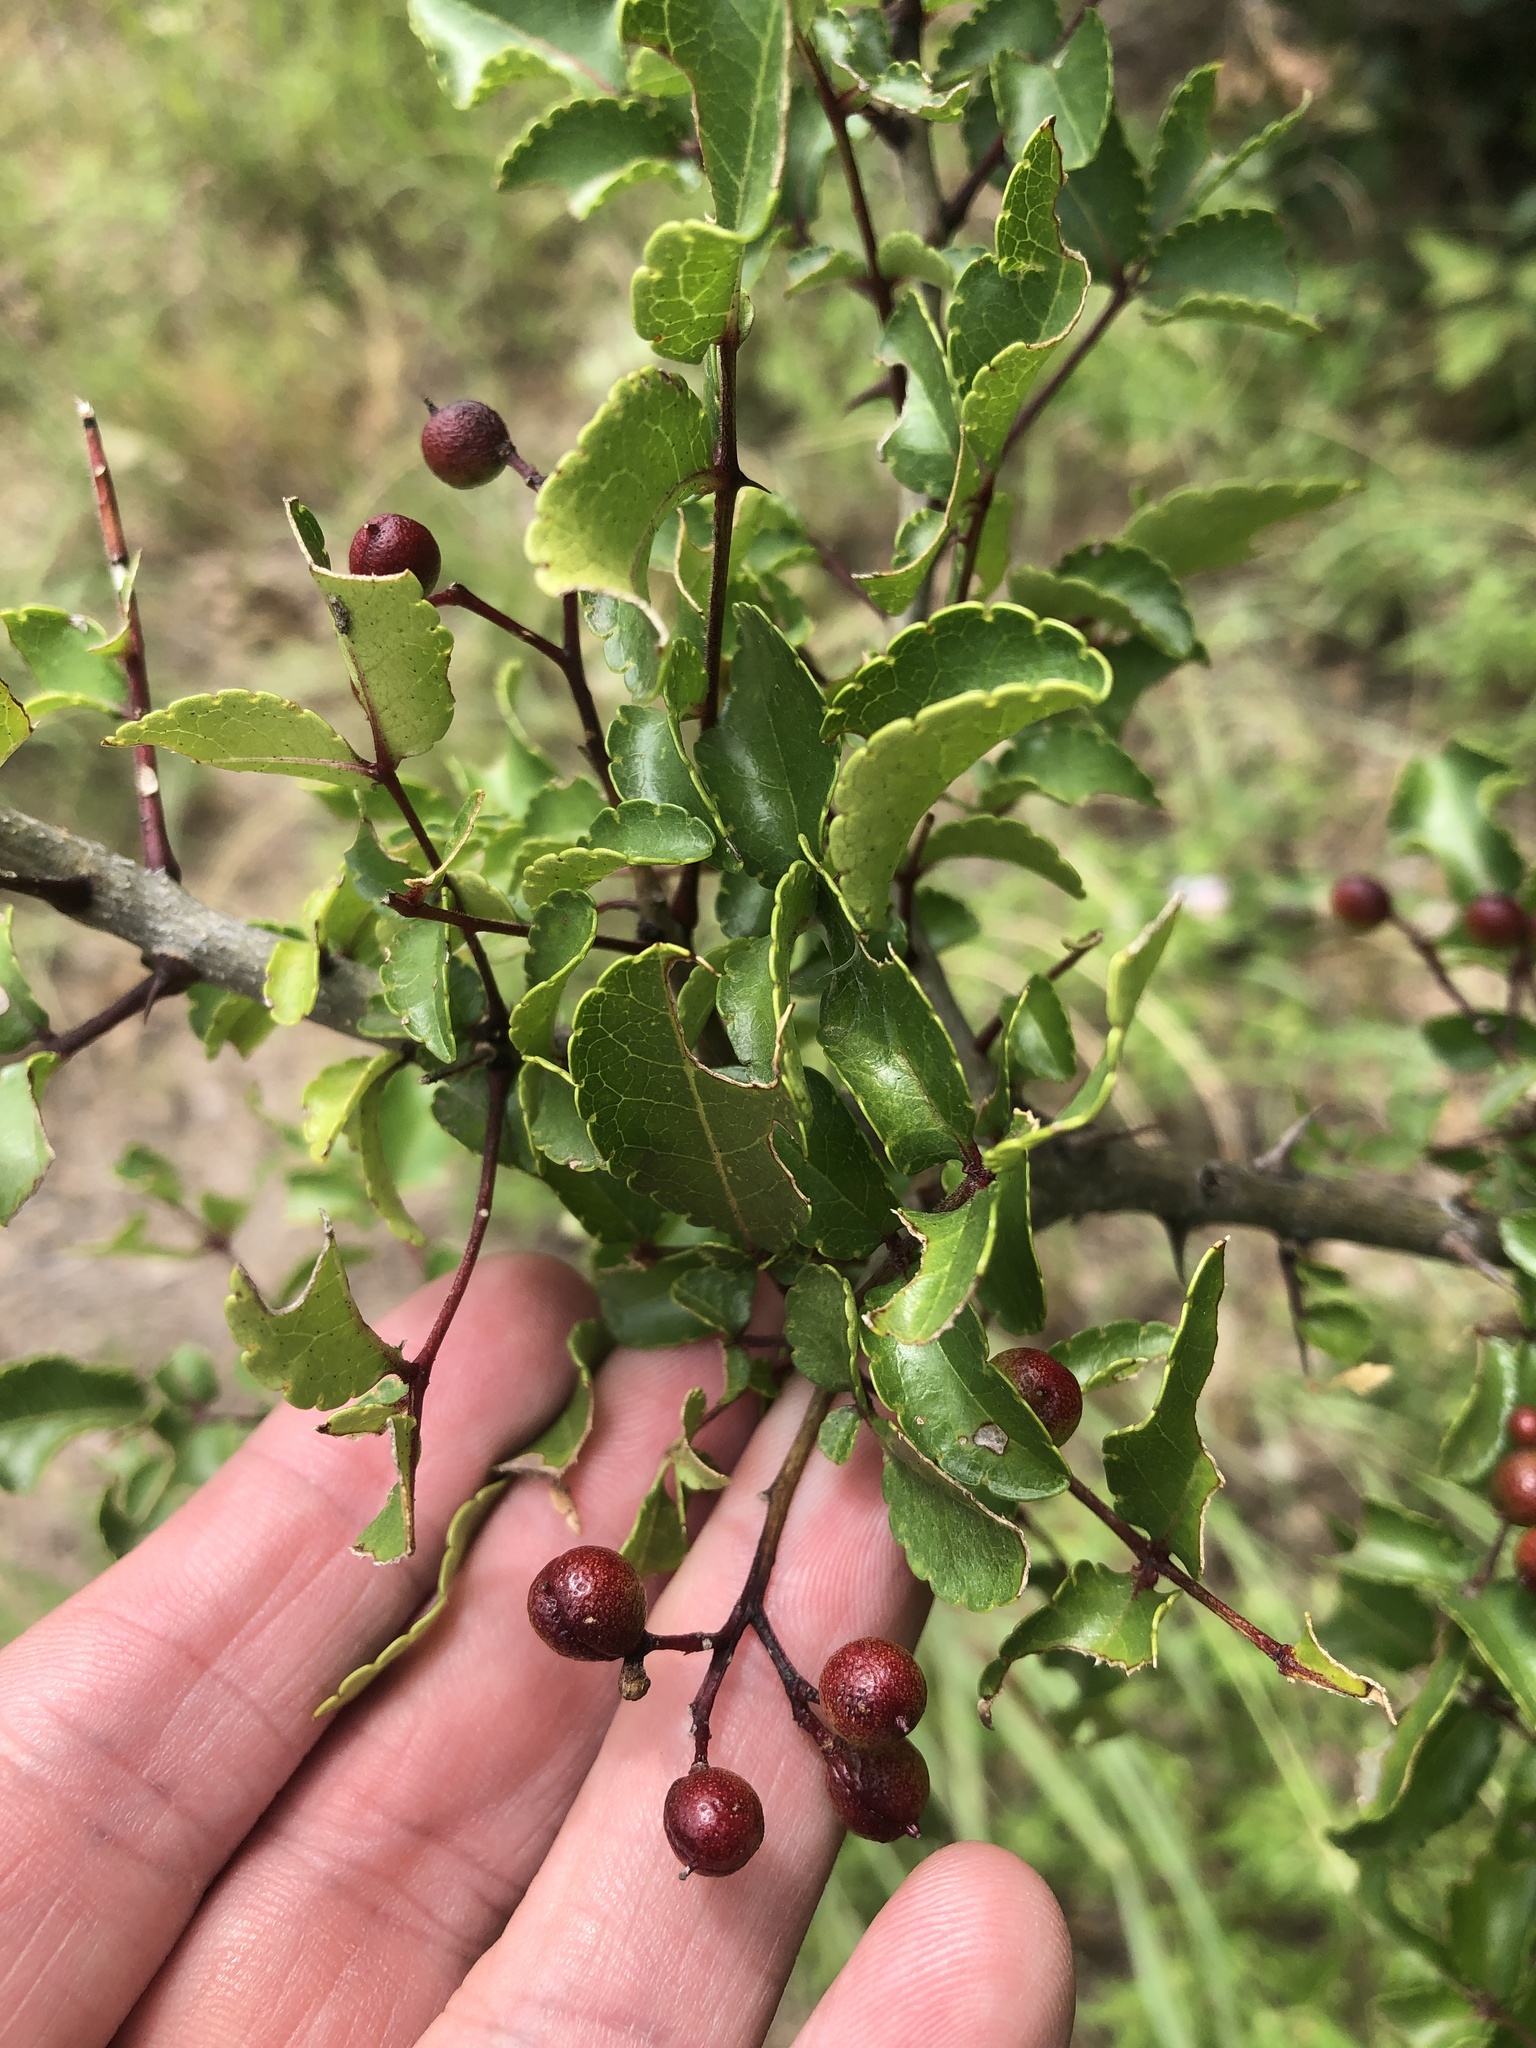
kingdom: Plantae
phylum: Tracheophyta
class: Magnoliopsida
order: Sapindales
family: Rutaceae
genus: Zanthoxylum
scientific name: Zanthoxylum clava-herculis
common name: Hercules'-club
